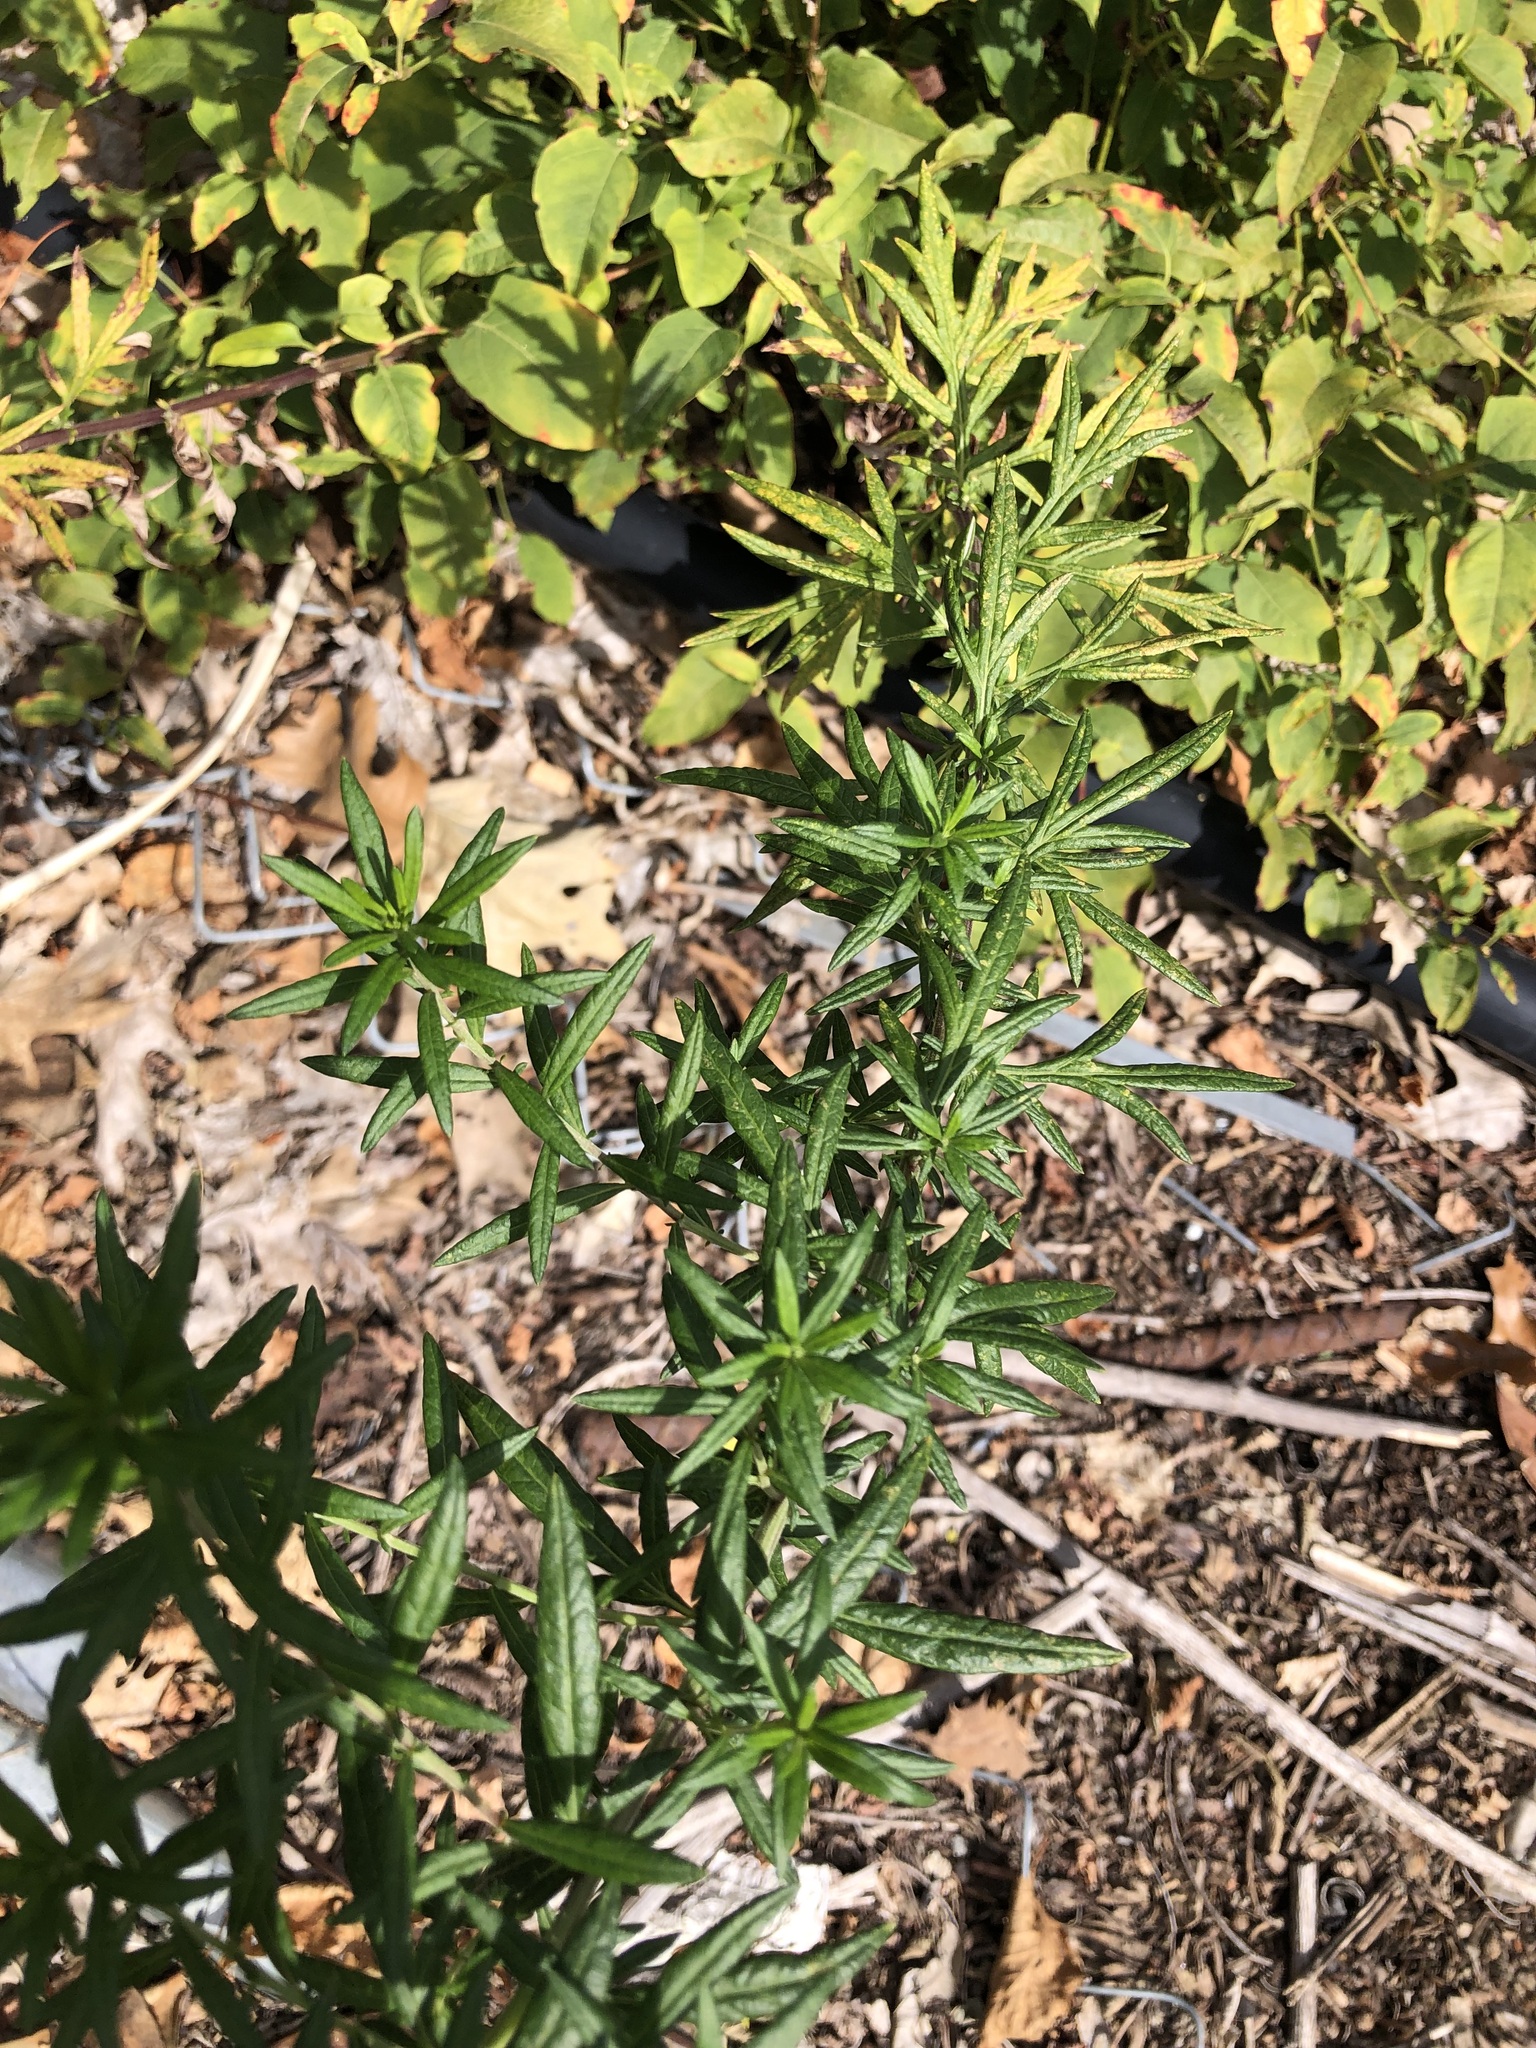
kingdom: Plantae
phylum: Tracheophyta
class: Magnoliopsida
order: Asterales
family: Asteraceae
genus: Artemisia
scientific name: Artemisia vulgaris
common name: Mugwort
